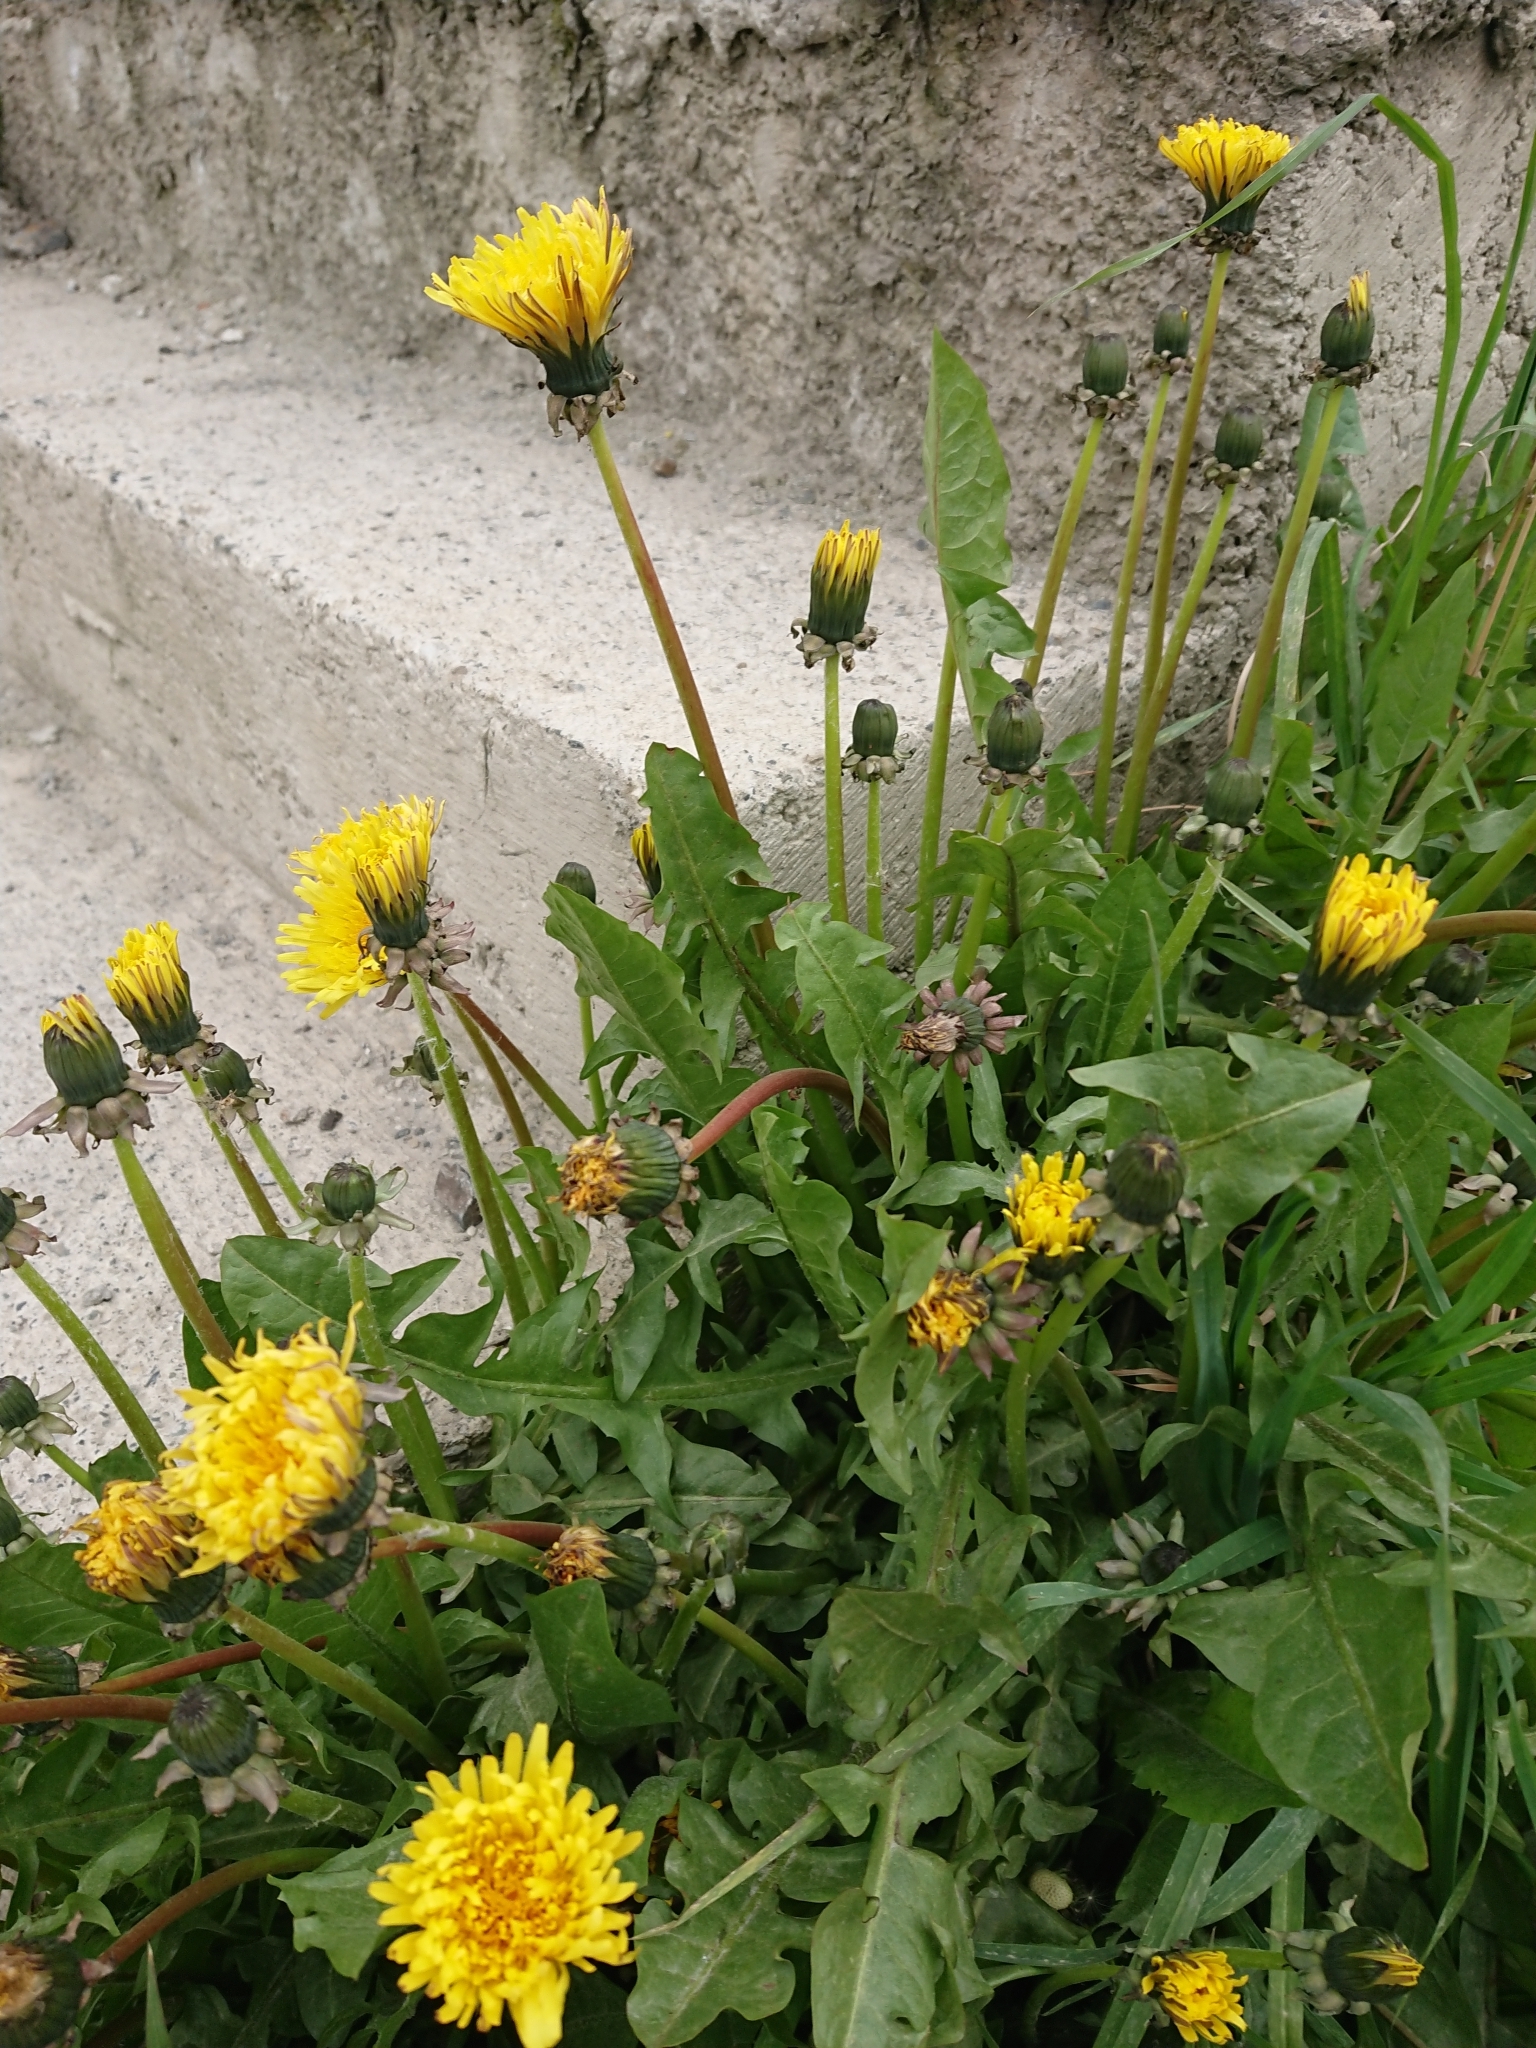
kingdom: Plantae
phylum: Tracheophyta
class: Magnoliopsida
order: Asterales
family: Asteraceae
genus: Taraxacum
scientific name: Taraxacum officinale
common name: Common dandelion
